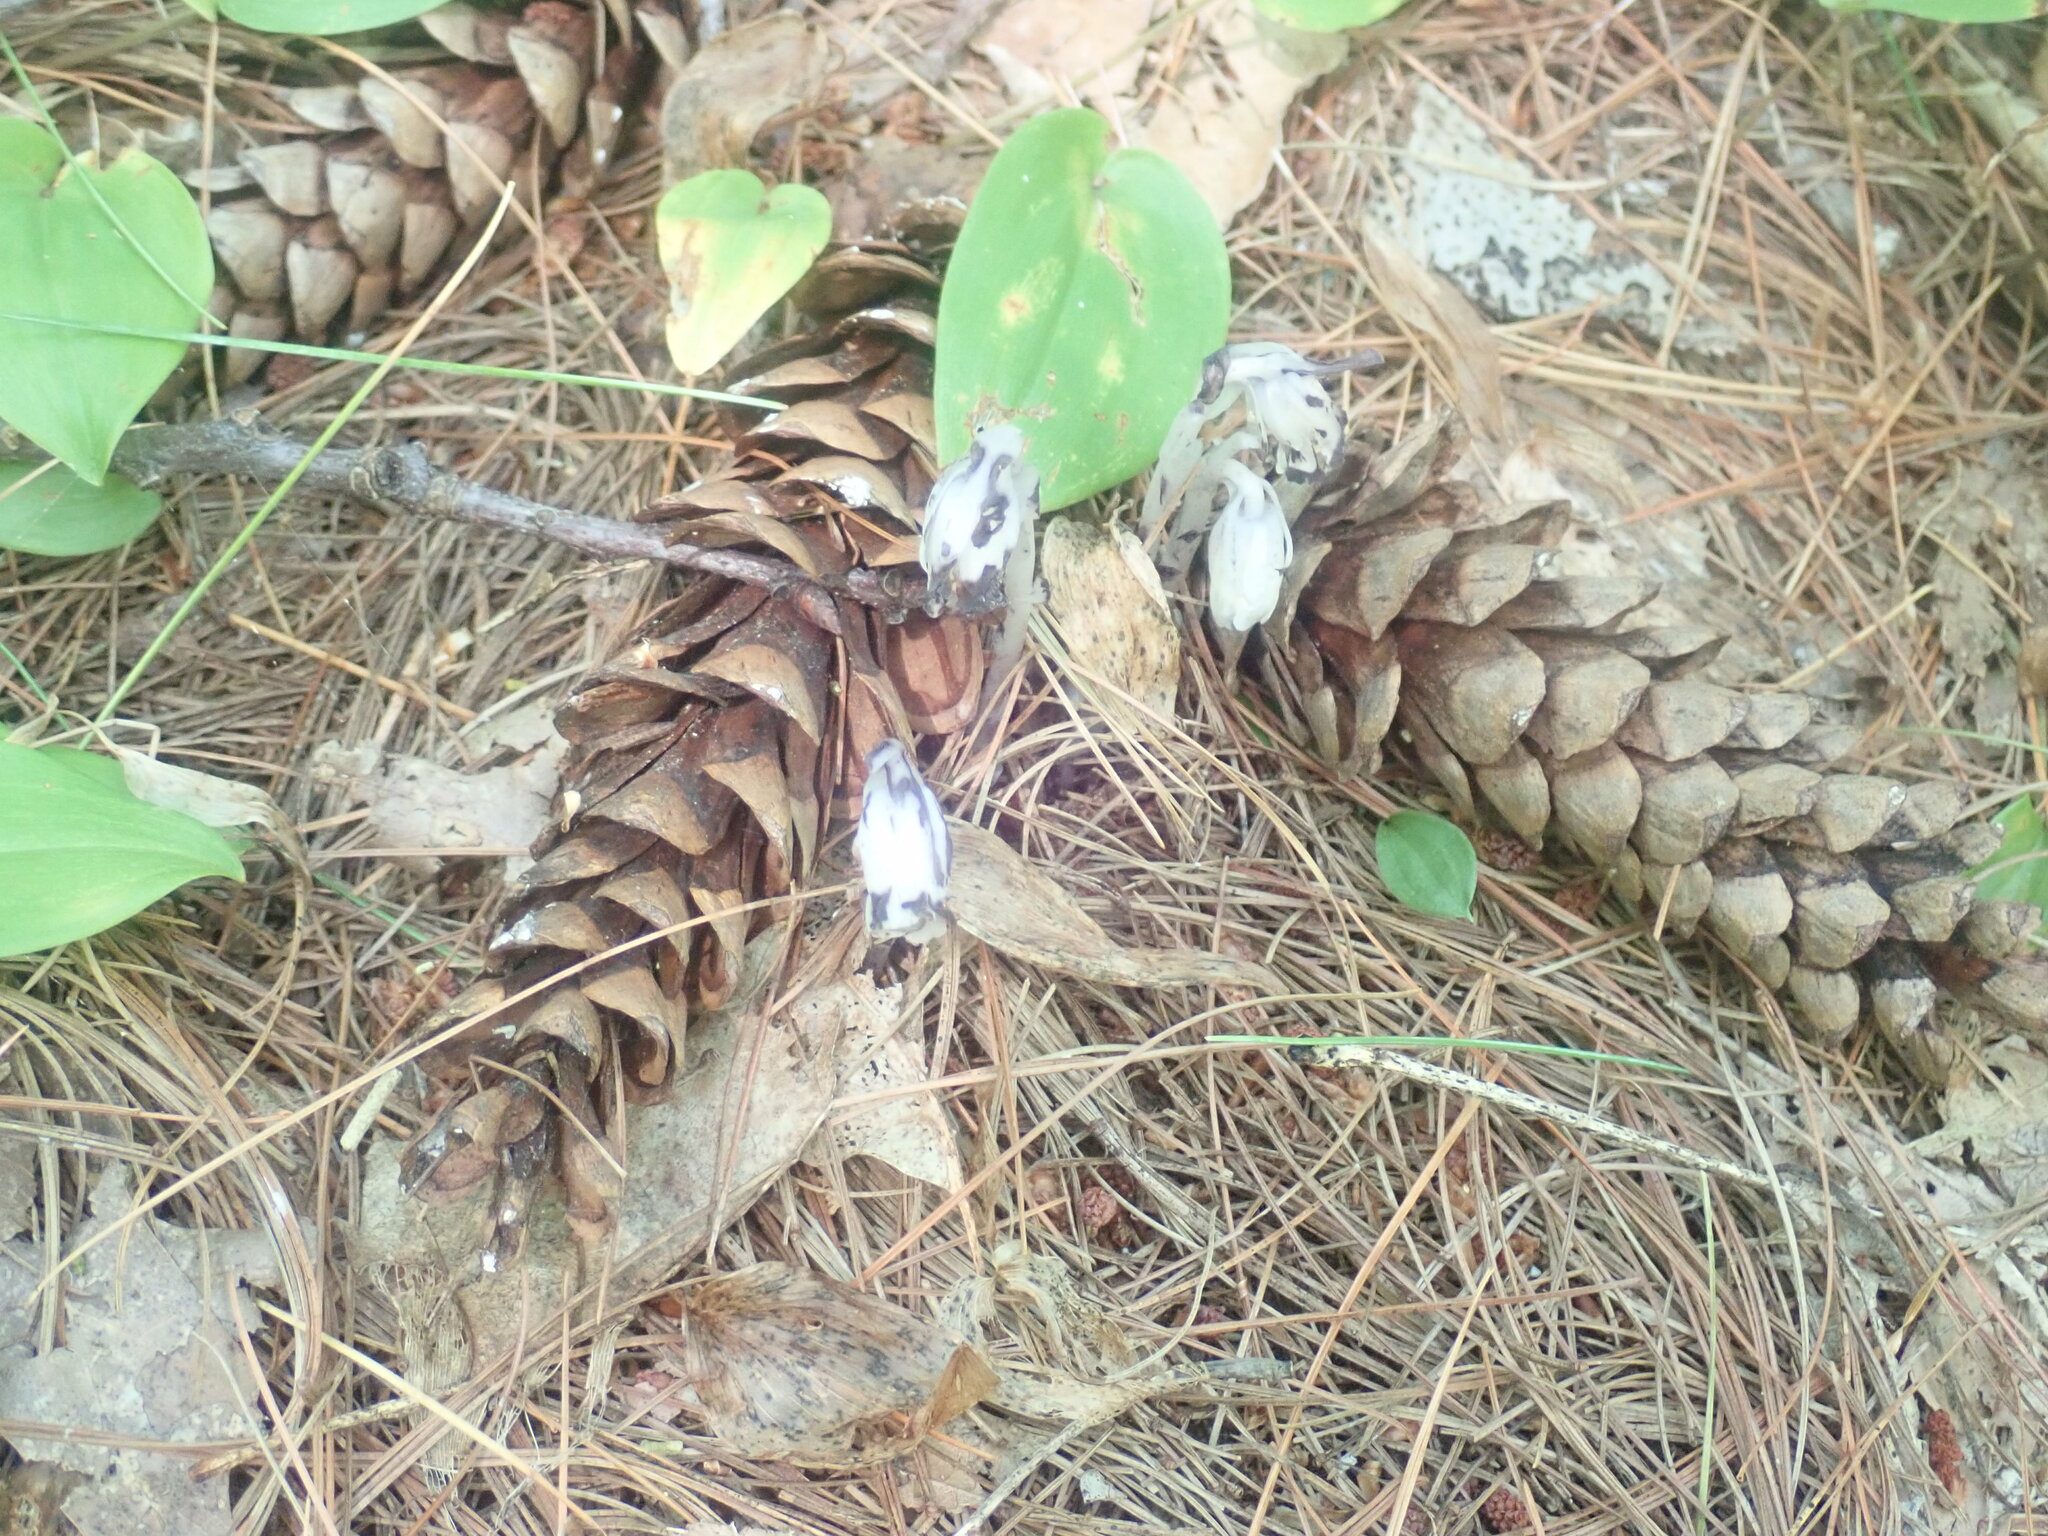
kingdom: Plantae
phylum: Tracheophyta
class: Magnoliopsida
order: Ericales
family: Ericaceae
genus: Monotropa
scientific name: Monotropa uniflora
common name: Convulsion root
